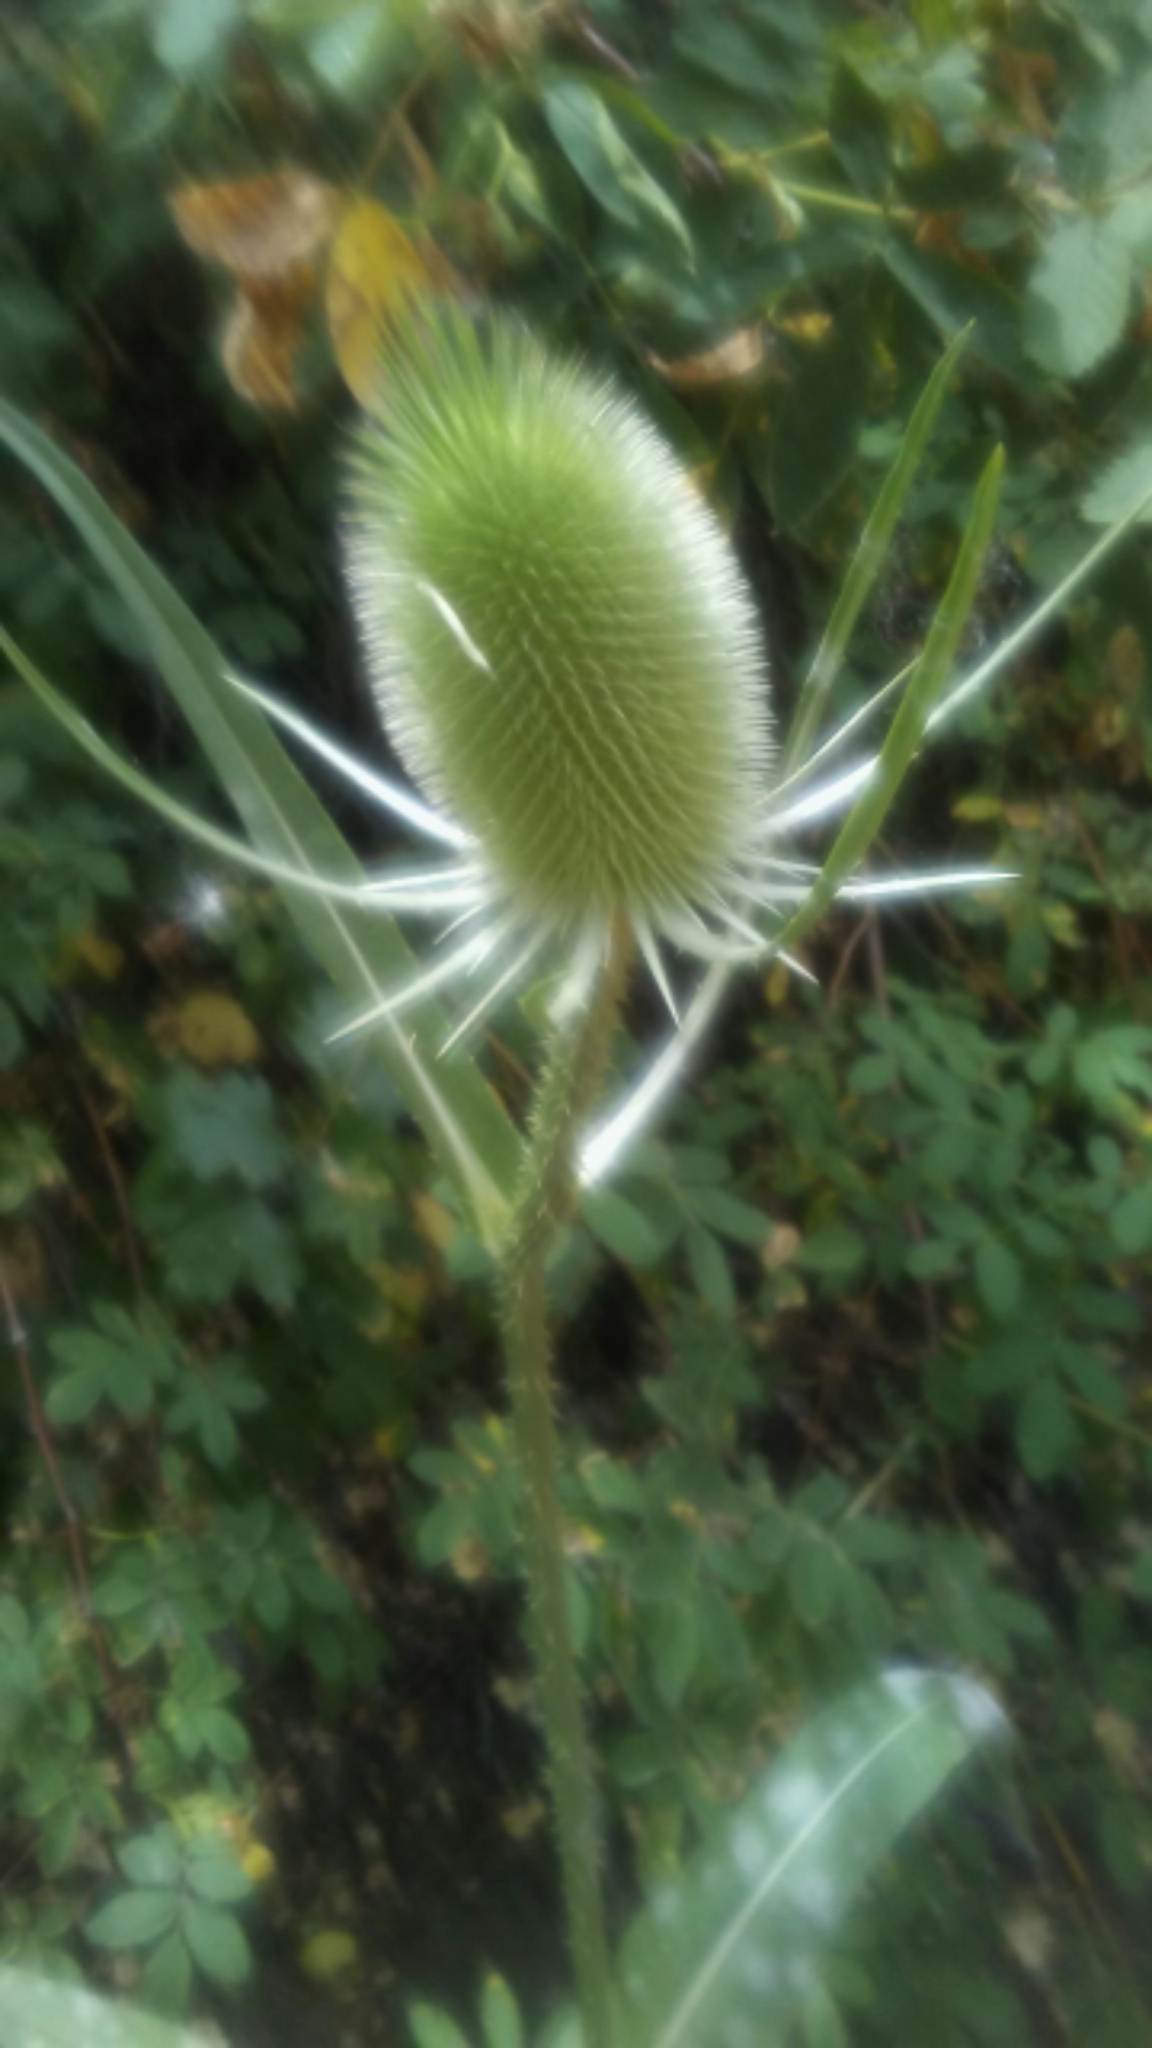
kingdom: Plantae
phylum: Tracheophyta
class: Magnoliopsida
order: Dipsacales
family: Caprifoliaceae
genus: Dipsacus
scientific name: Dipsacus fullonum
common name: Teasel
